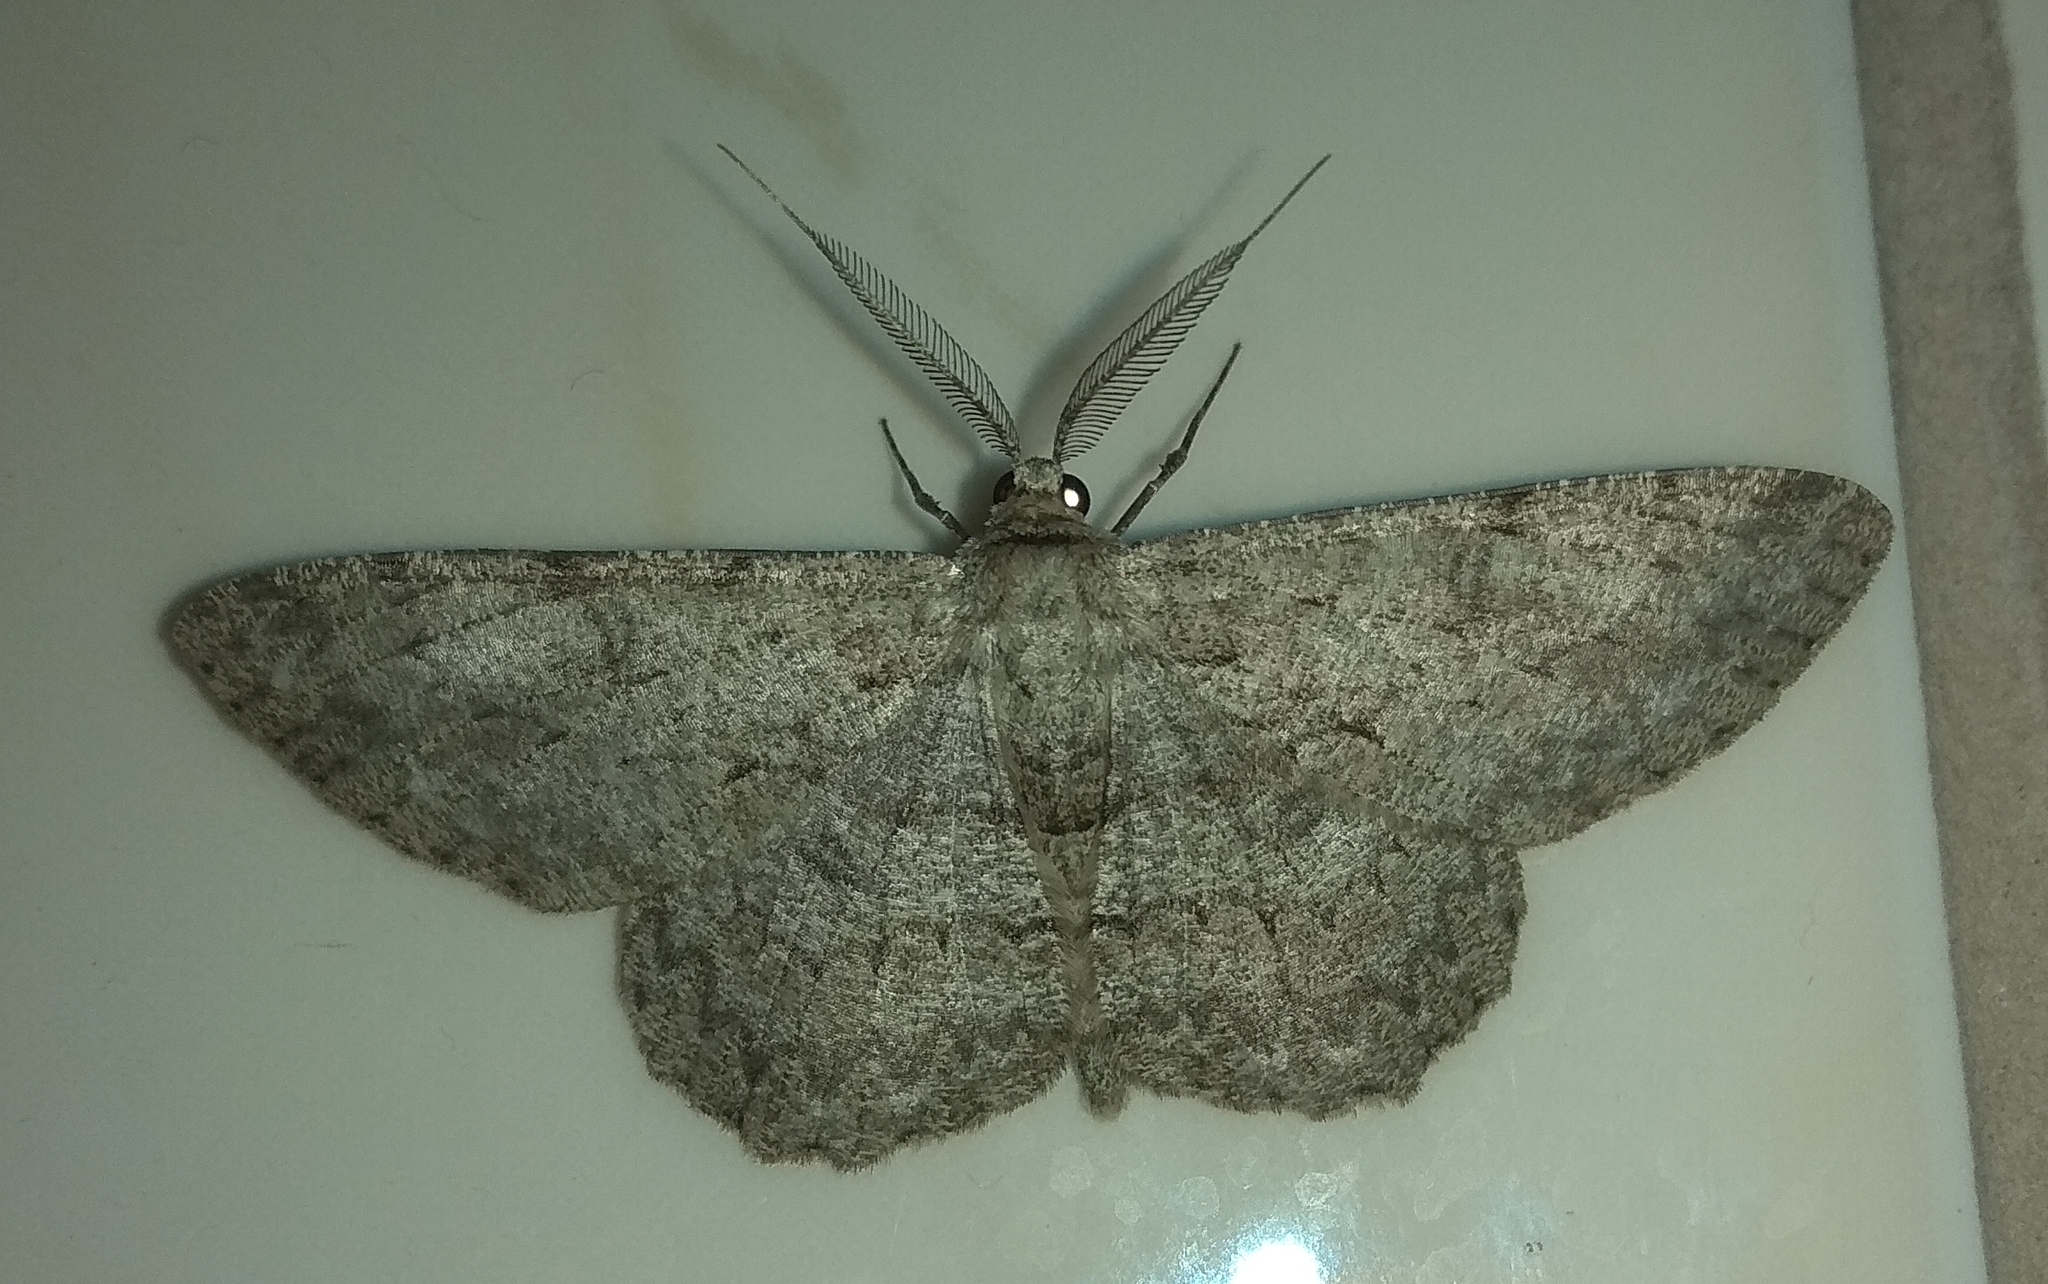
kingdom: Animalia
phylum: Arthropoda
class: Insecta
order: Lepidoptera
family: Geometridae
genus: Hypomecis
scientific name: Hypomecis punctinalis
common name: Pale oak beauty
